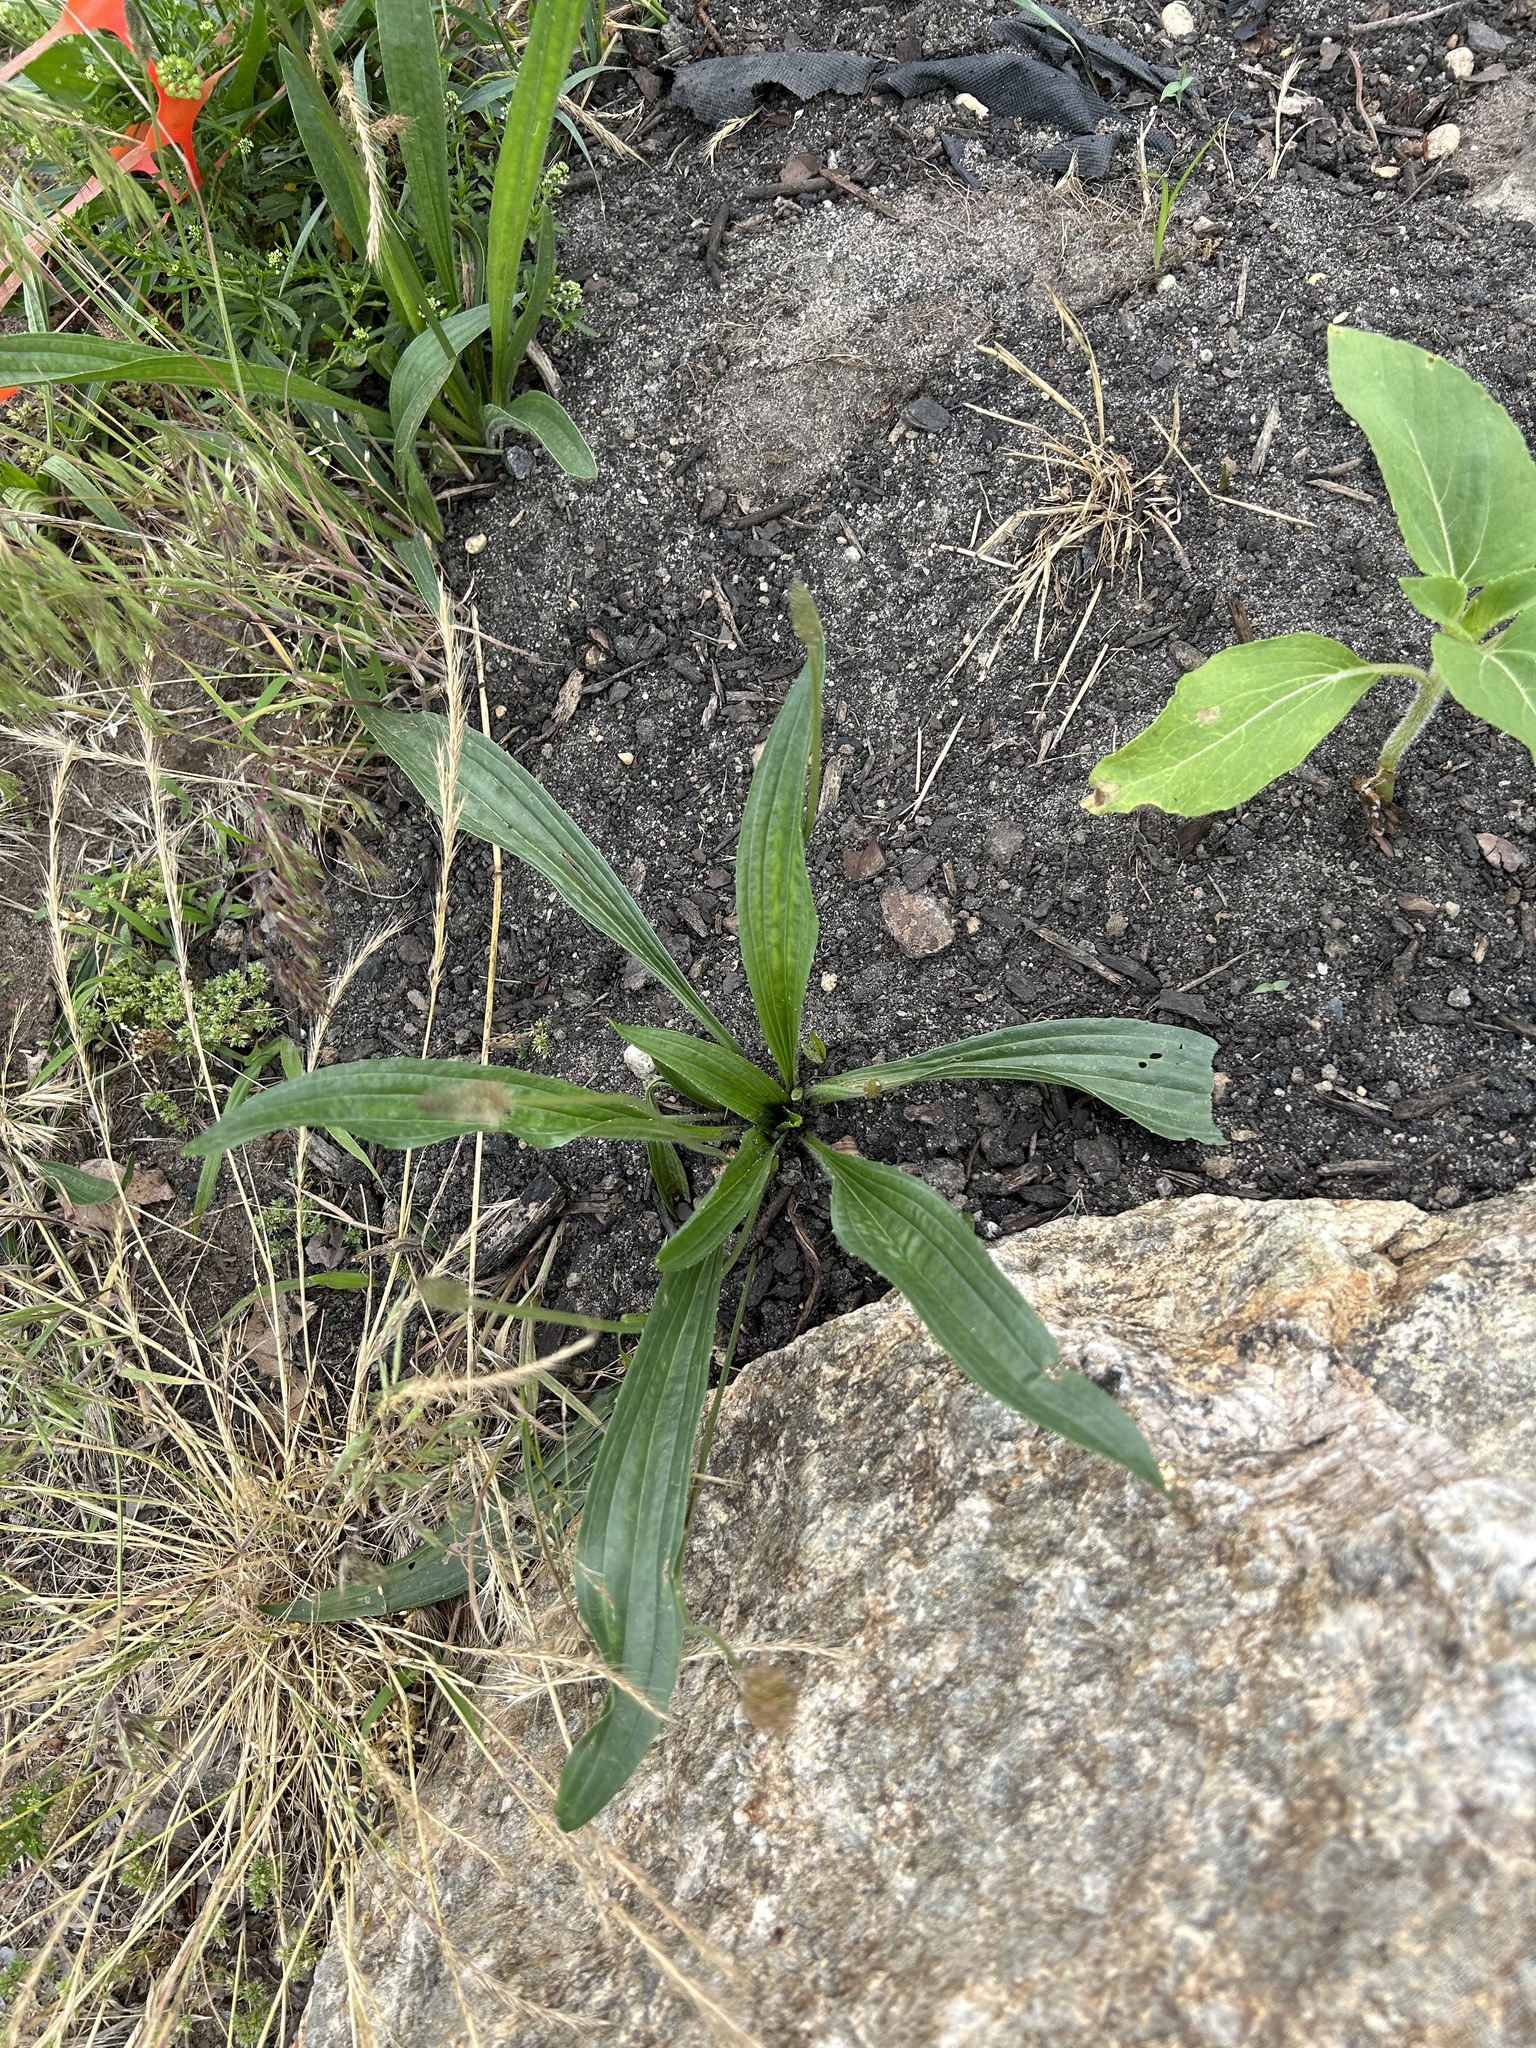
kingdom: Plantae
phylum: Tracheophyta
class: Magnoliopsida
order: Lamiales
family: Plantaginaceae
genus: Plantago
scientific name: Plantago lanceolata
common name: Ribwort plantain
